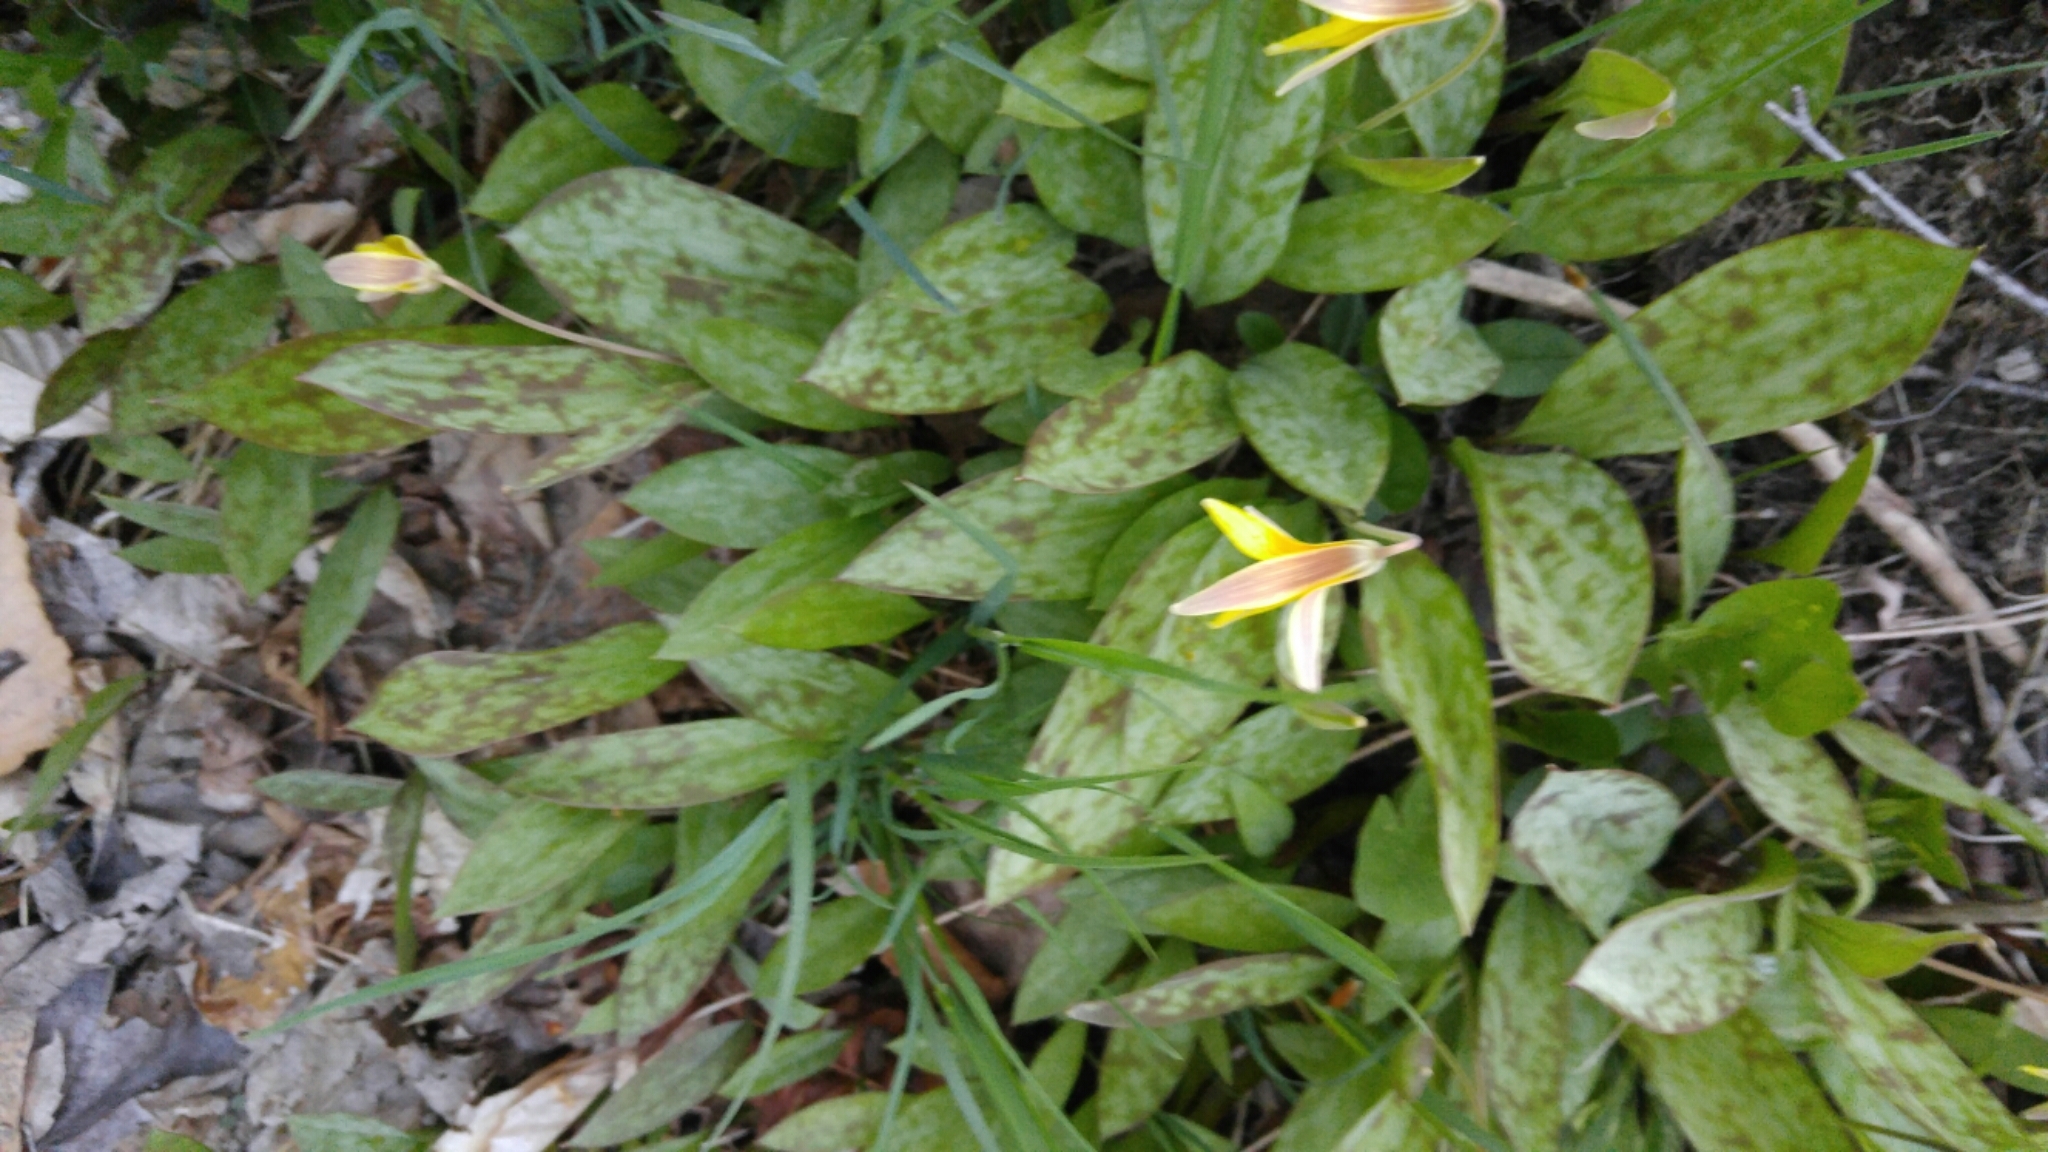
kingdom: Plantae
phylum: Tracheophyta
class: Liliopsida
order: Liliales
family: Liliaceae
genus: Erythronium
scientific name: Erythronium americanum
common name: Yellow adder's-tongue
